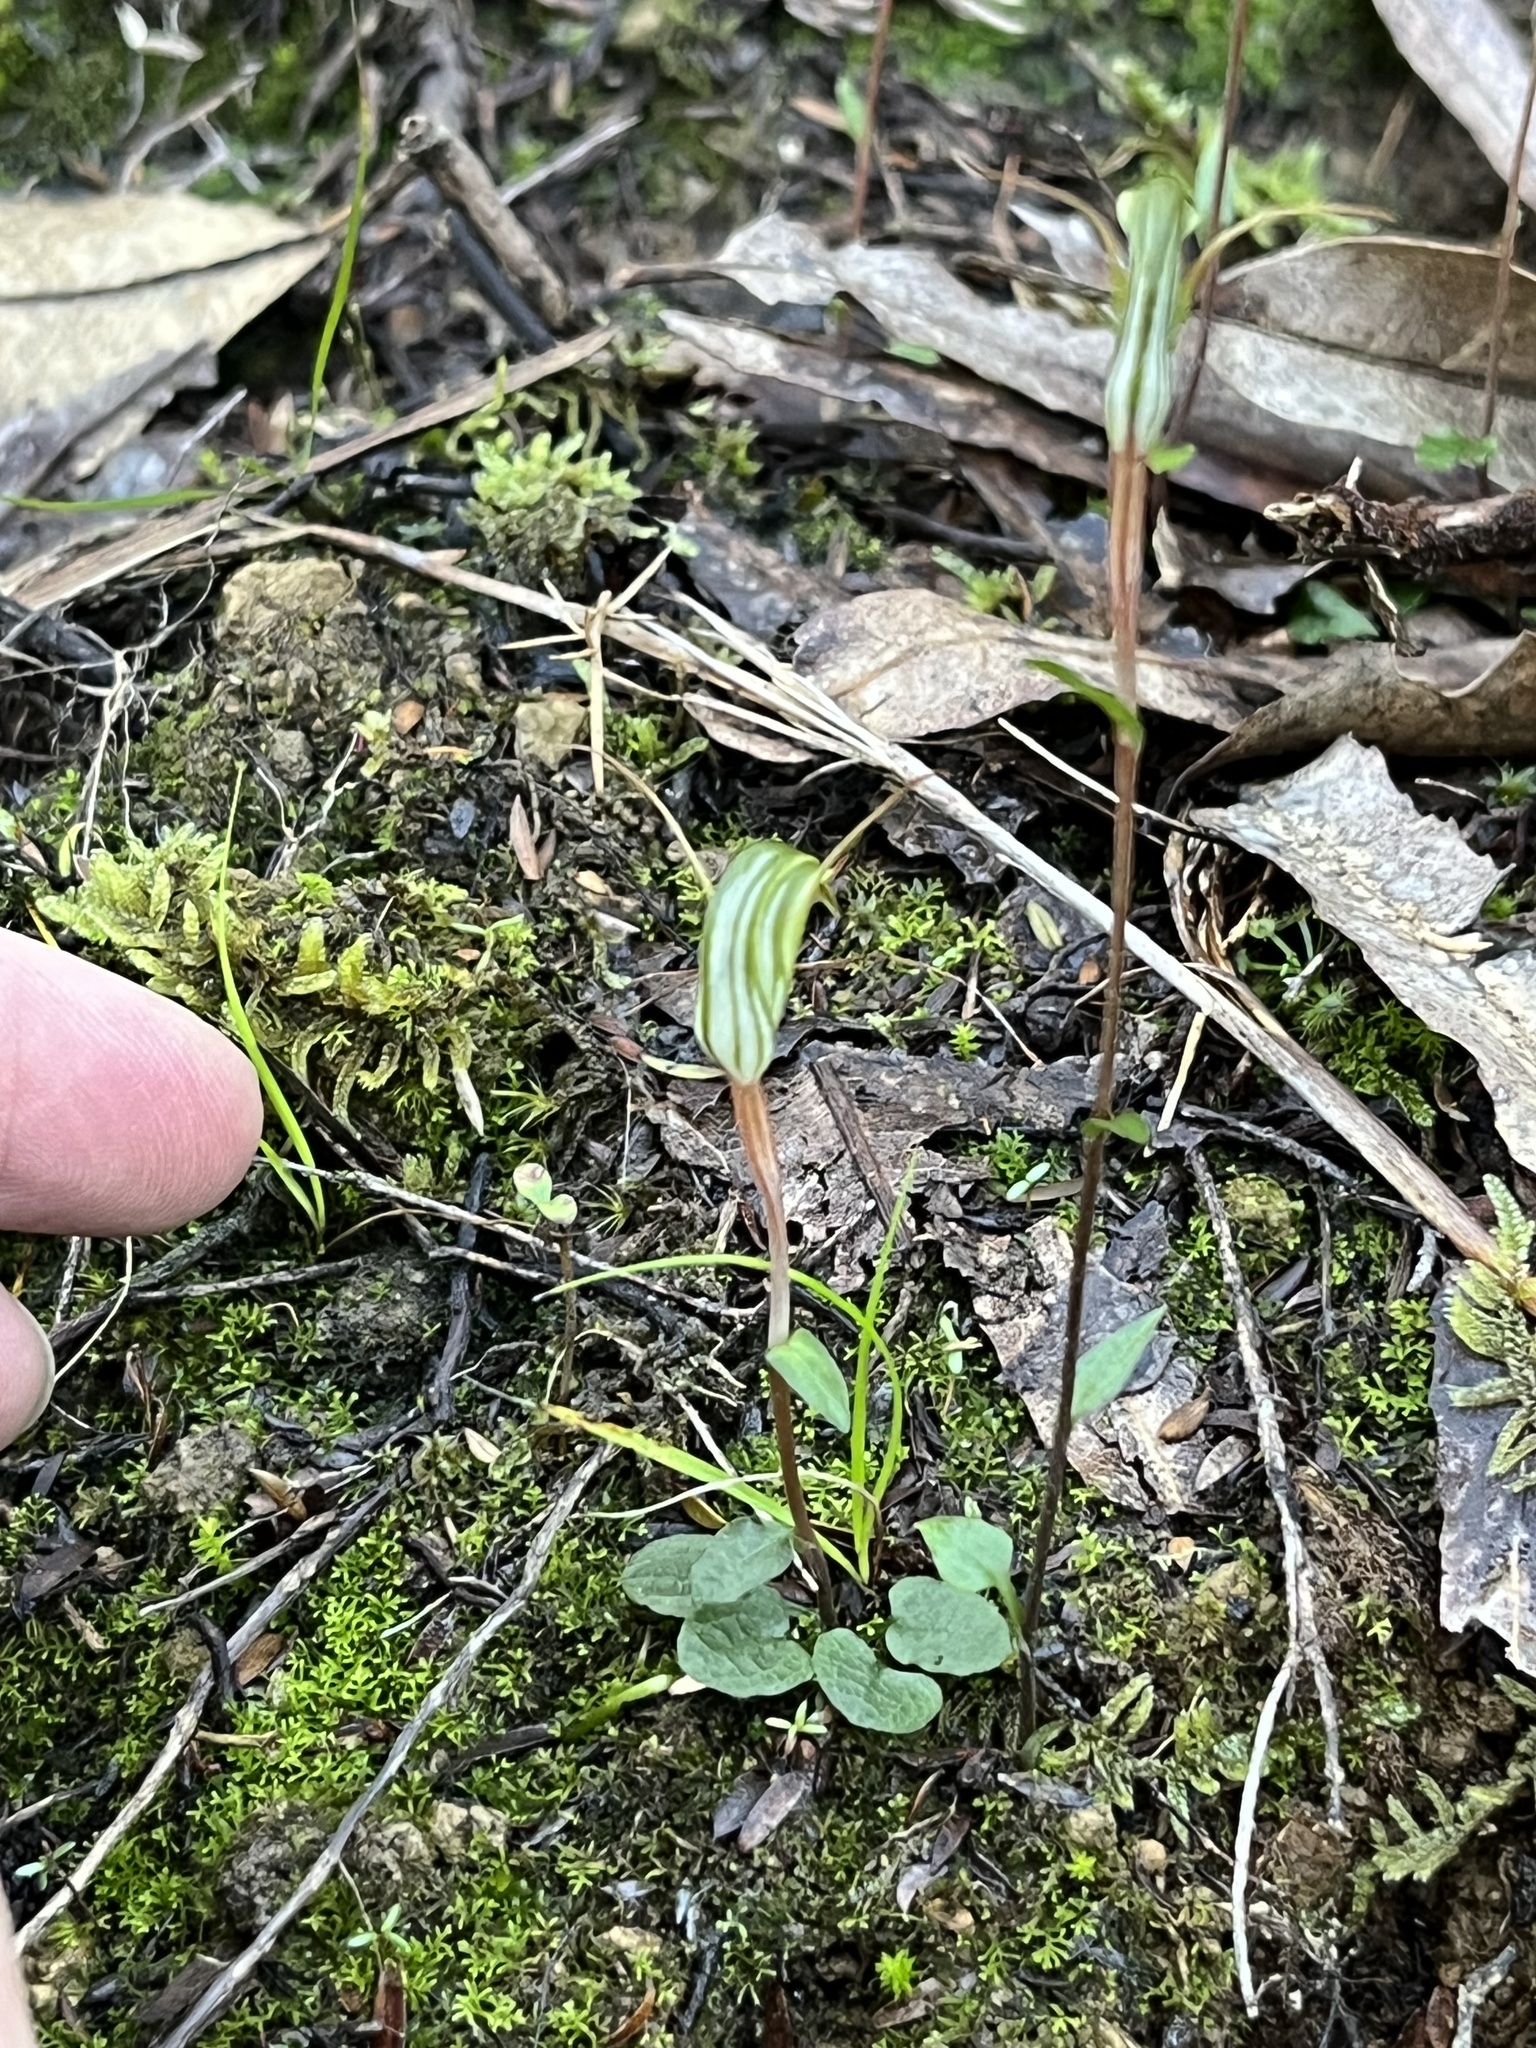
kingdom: Plantae
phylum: Tracheophyta
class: Liliopsida
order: Asparagales
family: Orchidaceae
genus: Pterostylis
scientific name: Pterostylis trullifolia
